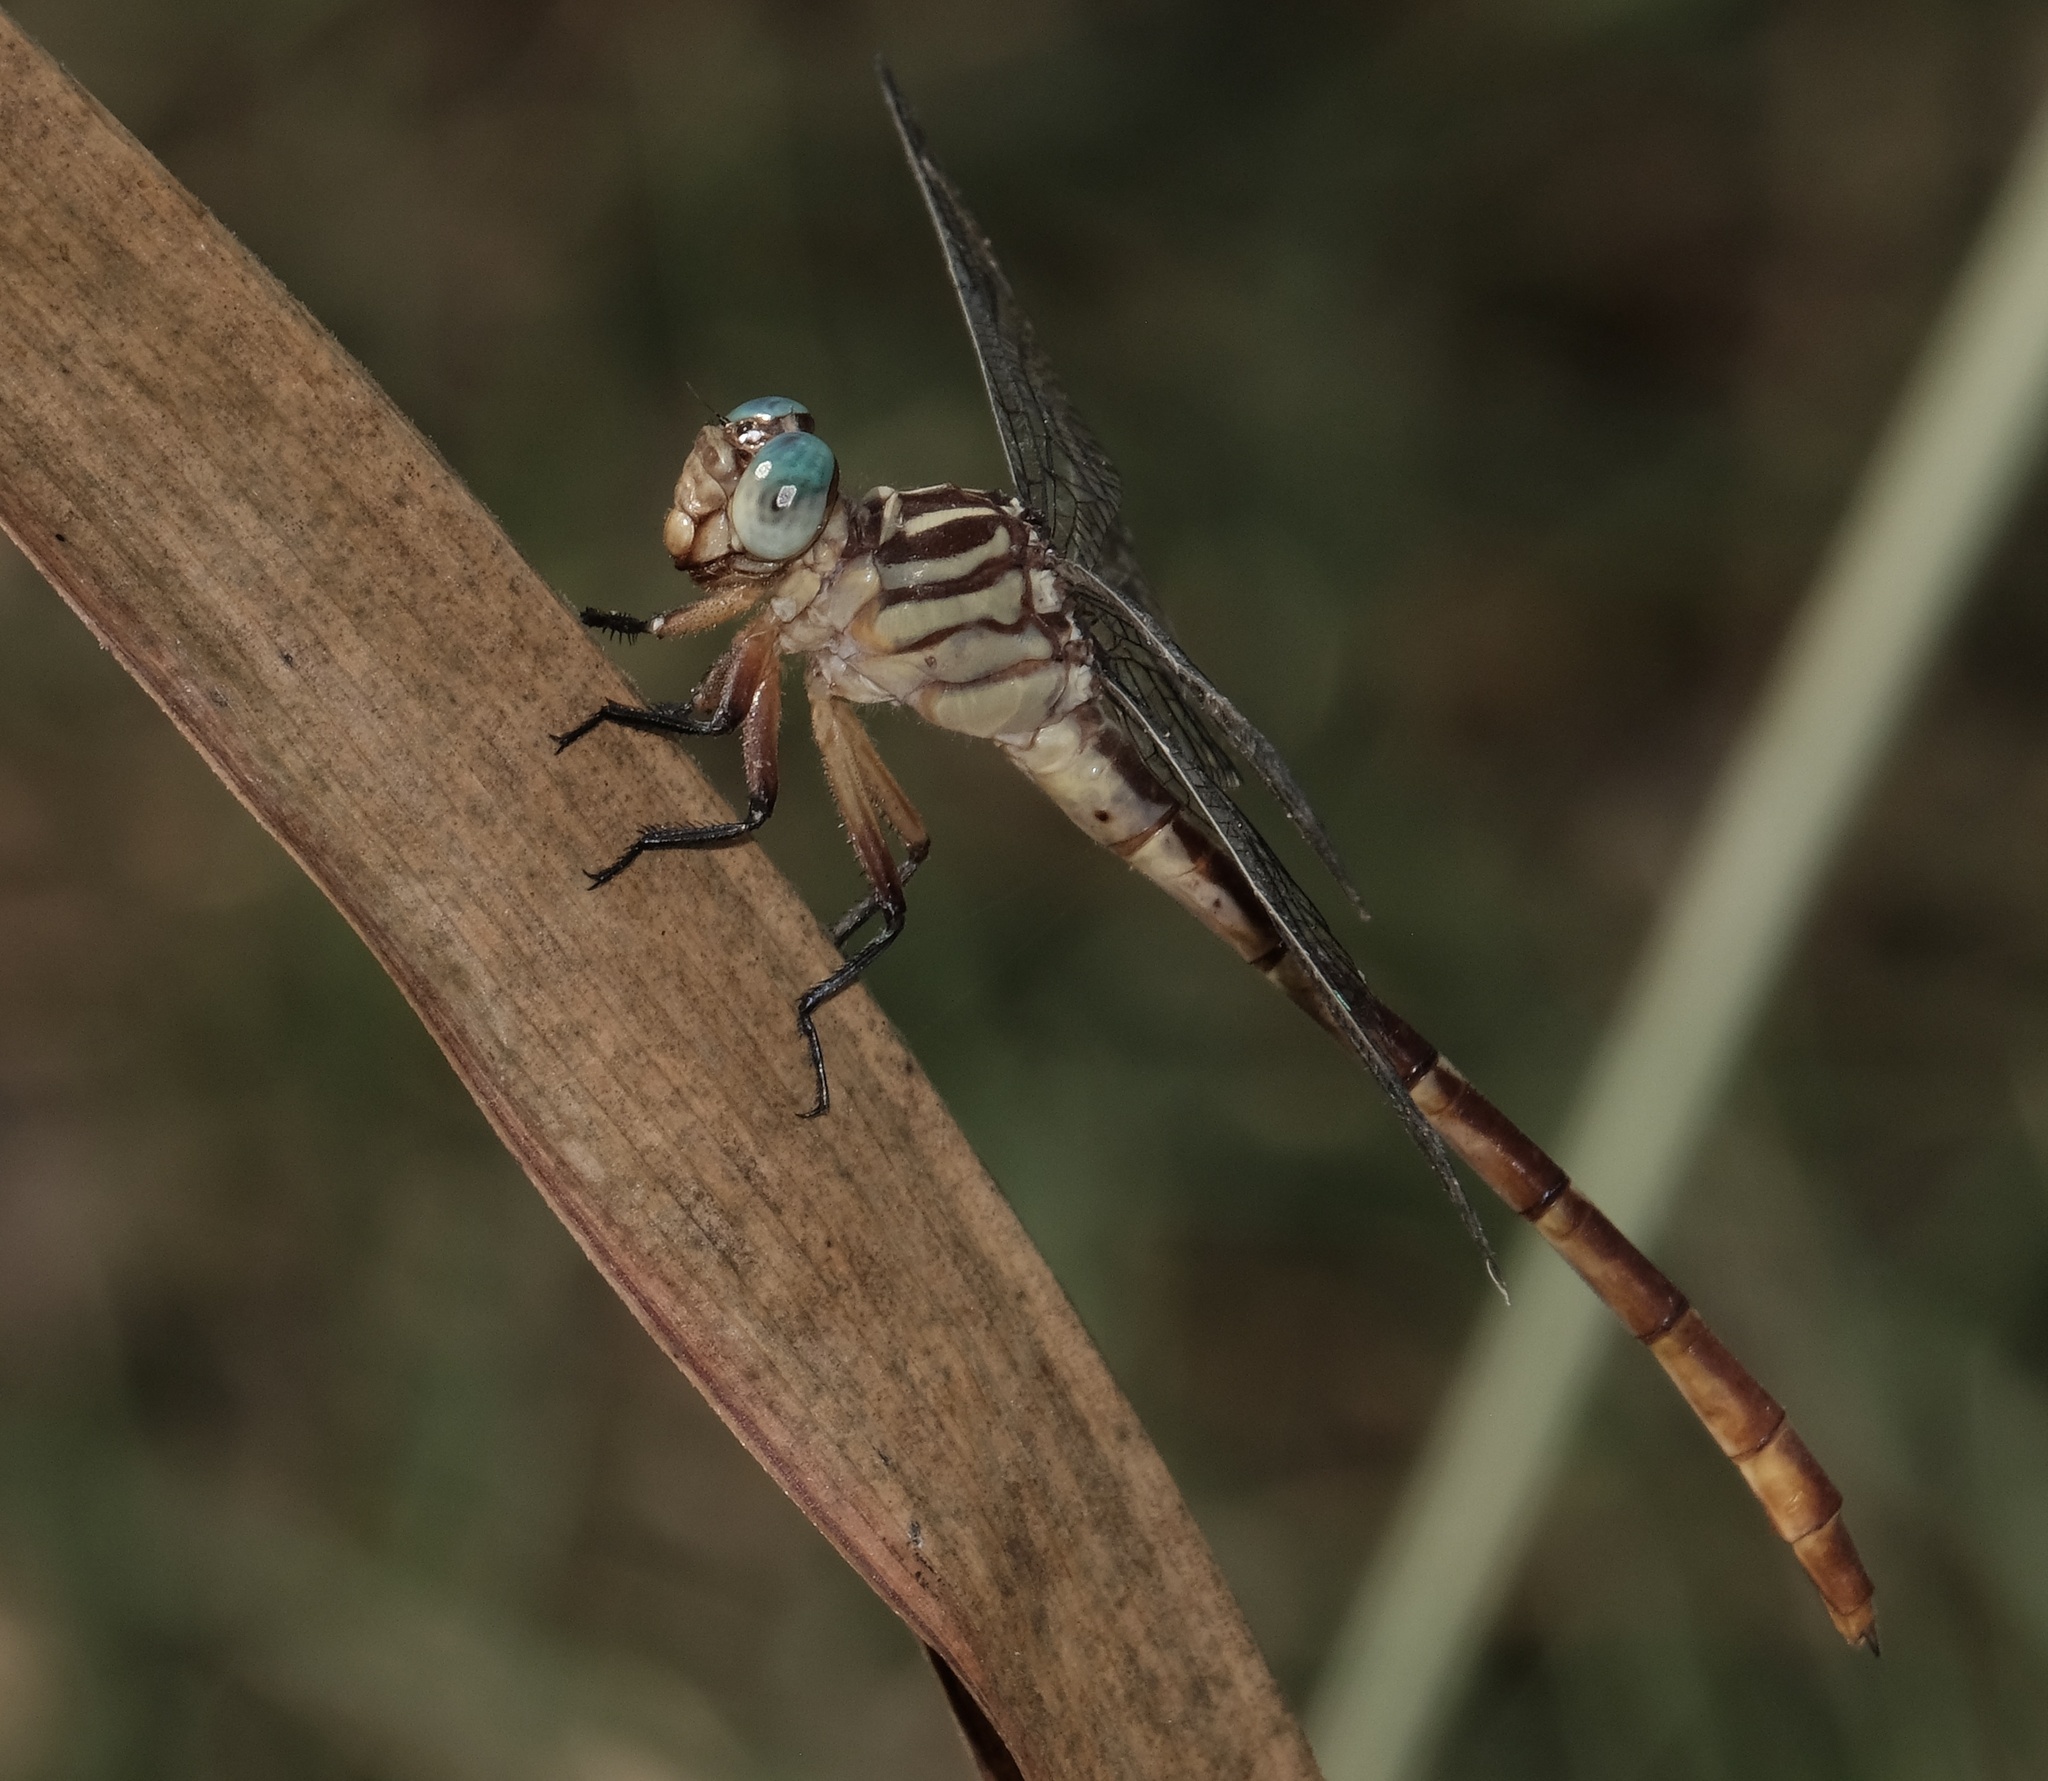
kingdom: Animalia
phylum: Arthropoda
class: Insecta
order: Odonata
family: Gomphidae
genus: Stylurus
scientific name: Stylurus plagiatus
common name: Russet-tipped clubtail
